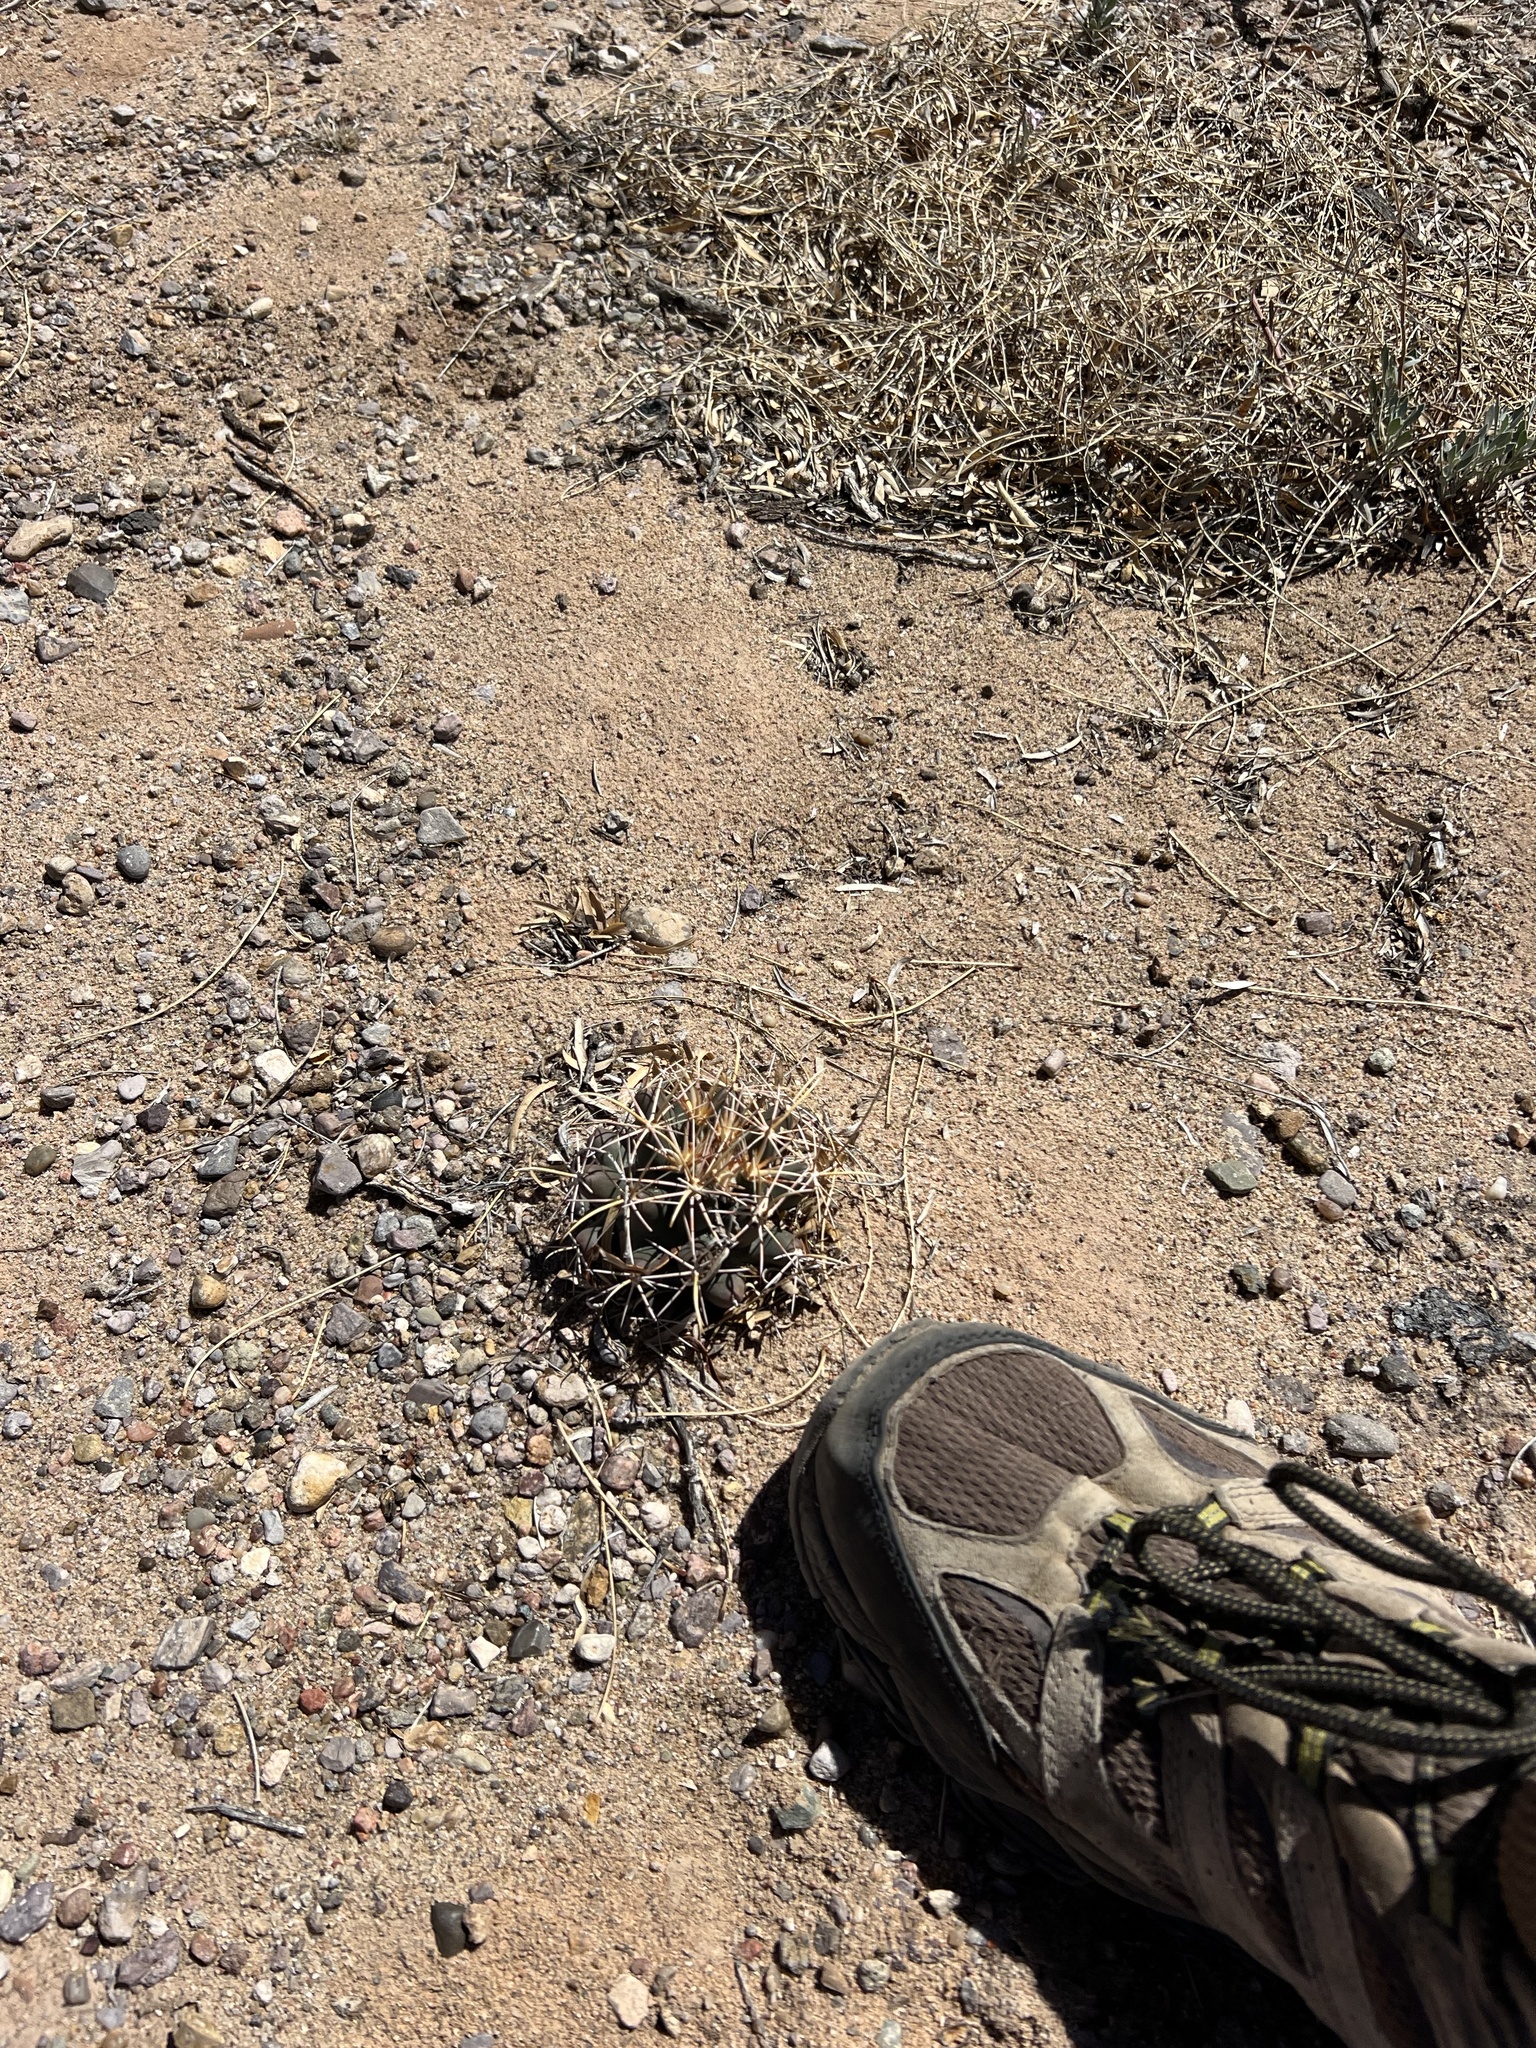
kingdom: Plantae
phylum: Tracheophyta
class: Magnoliopsida
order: Caryophyllales
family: Cactaceae
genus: Coryphantha
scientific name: Coryphantha robustispina
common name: Pima pineapple cactus
